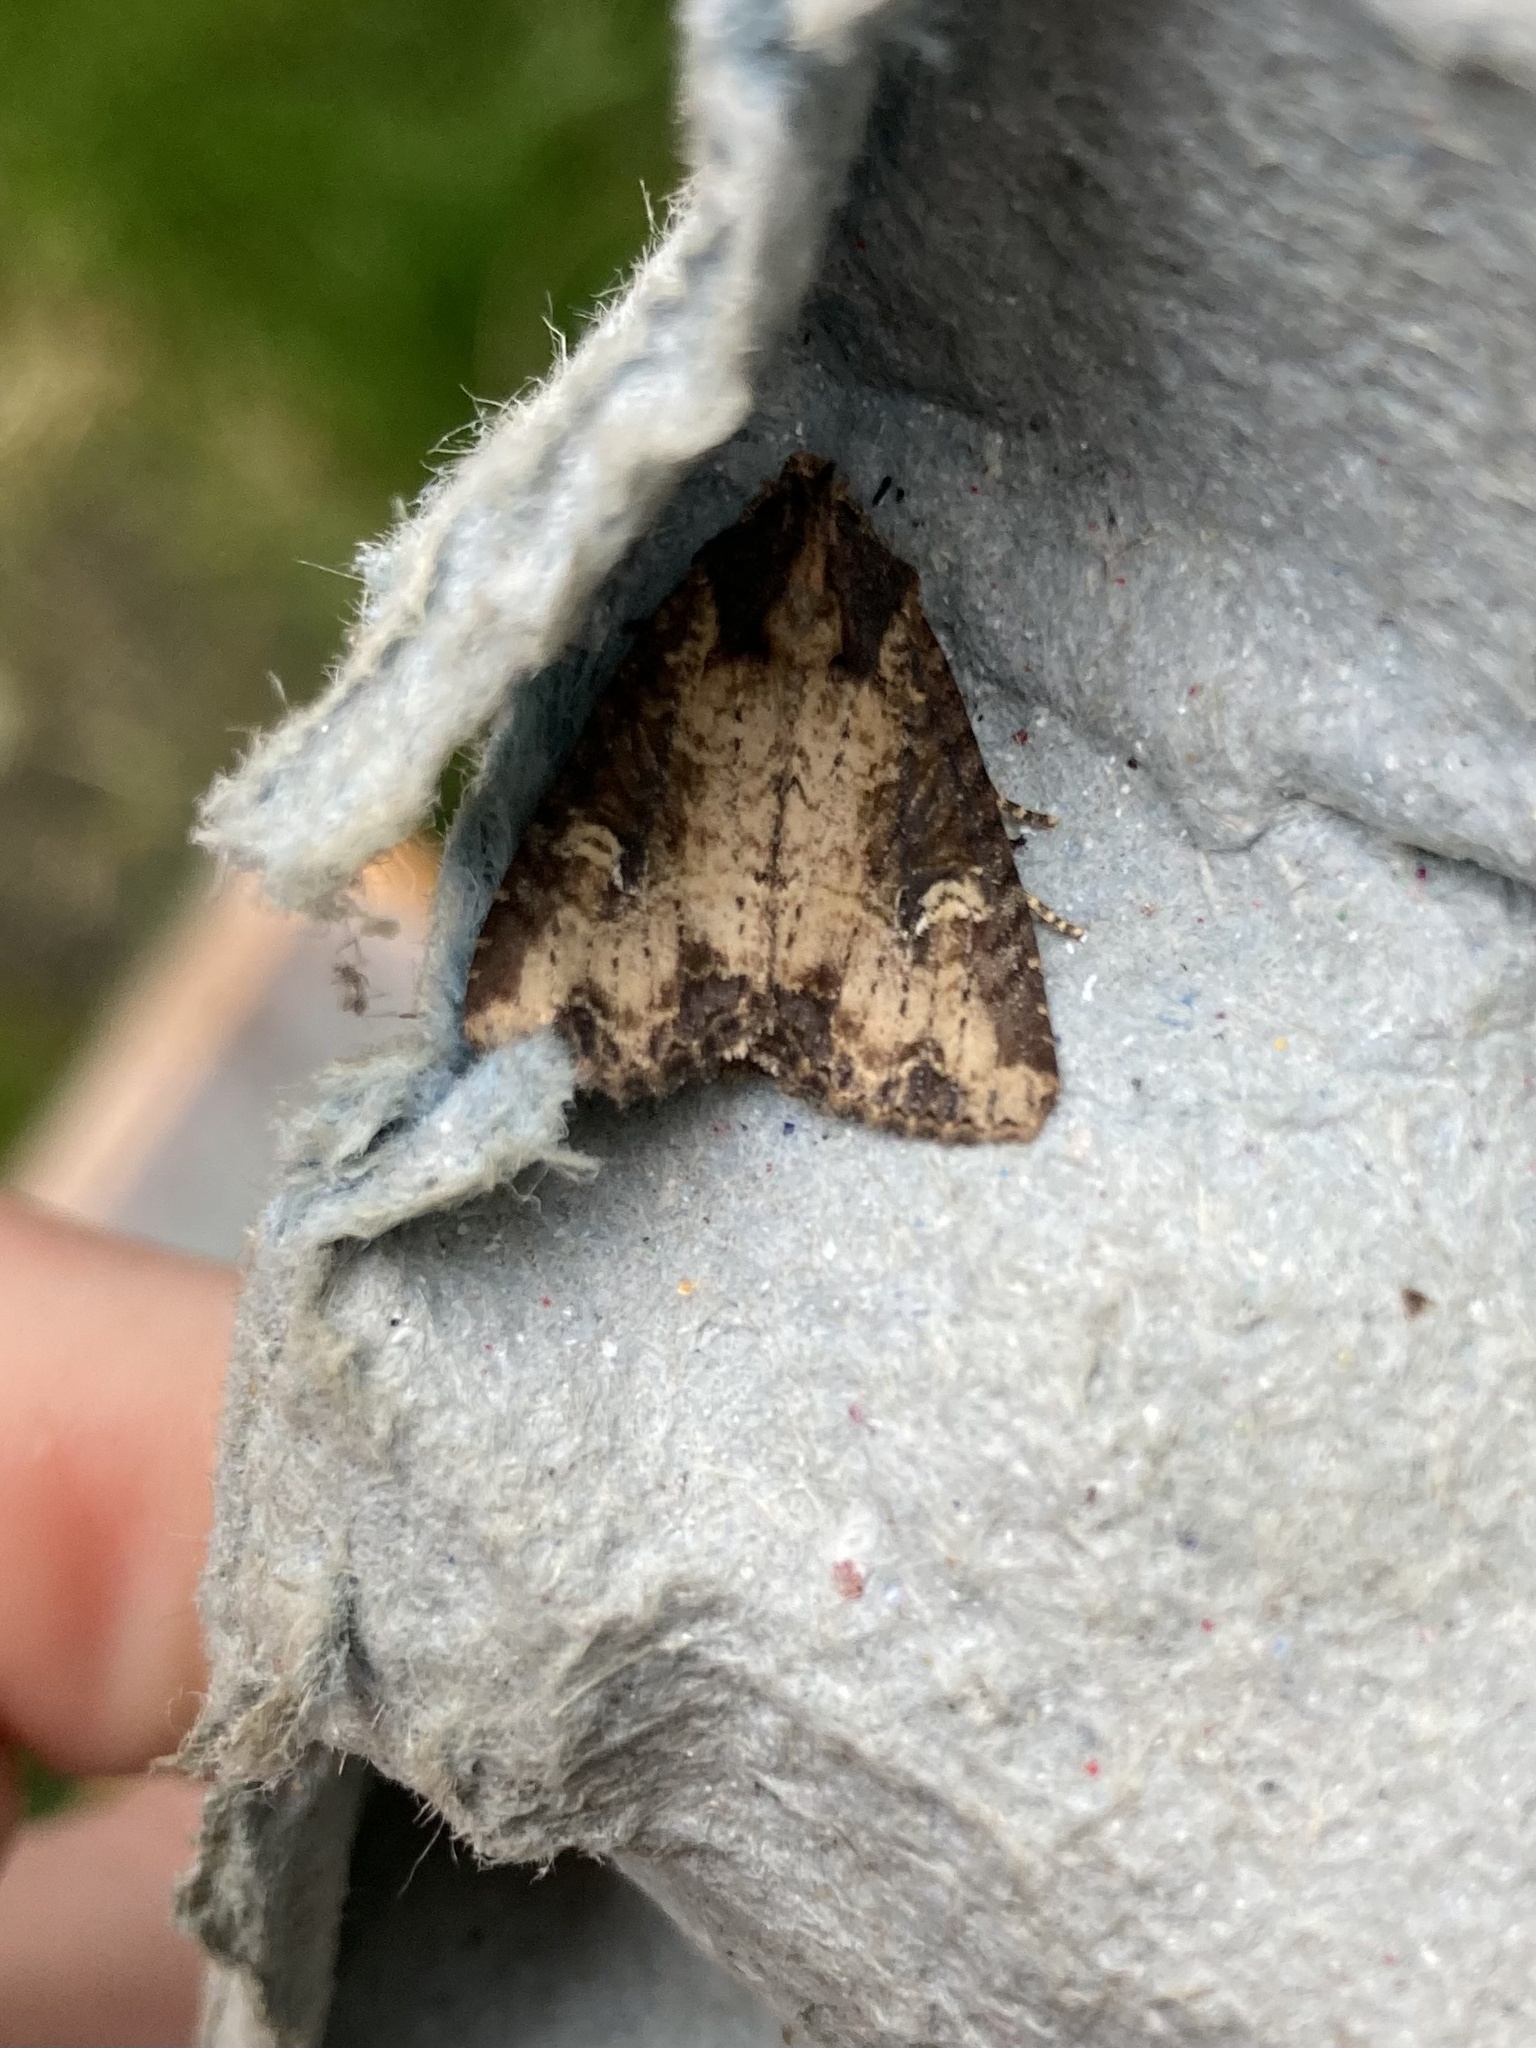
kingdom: Animalia
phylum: Arthropoda
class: Insecta
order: Lepidoptera
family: Noctuidae
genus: Mesapamea
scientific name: Mesapamea secalis
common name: Common rustic
